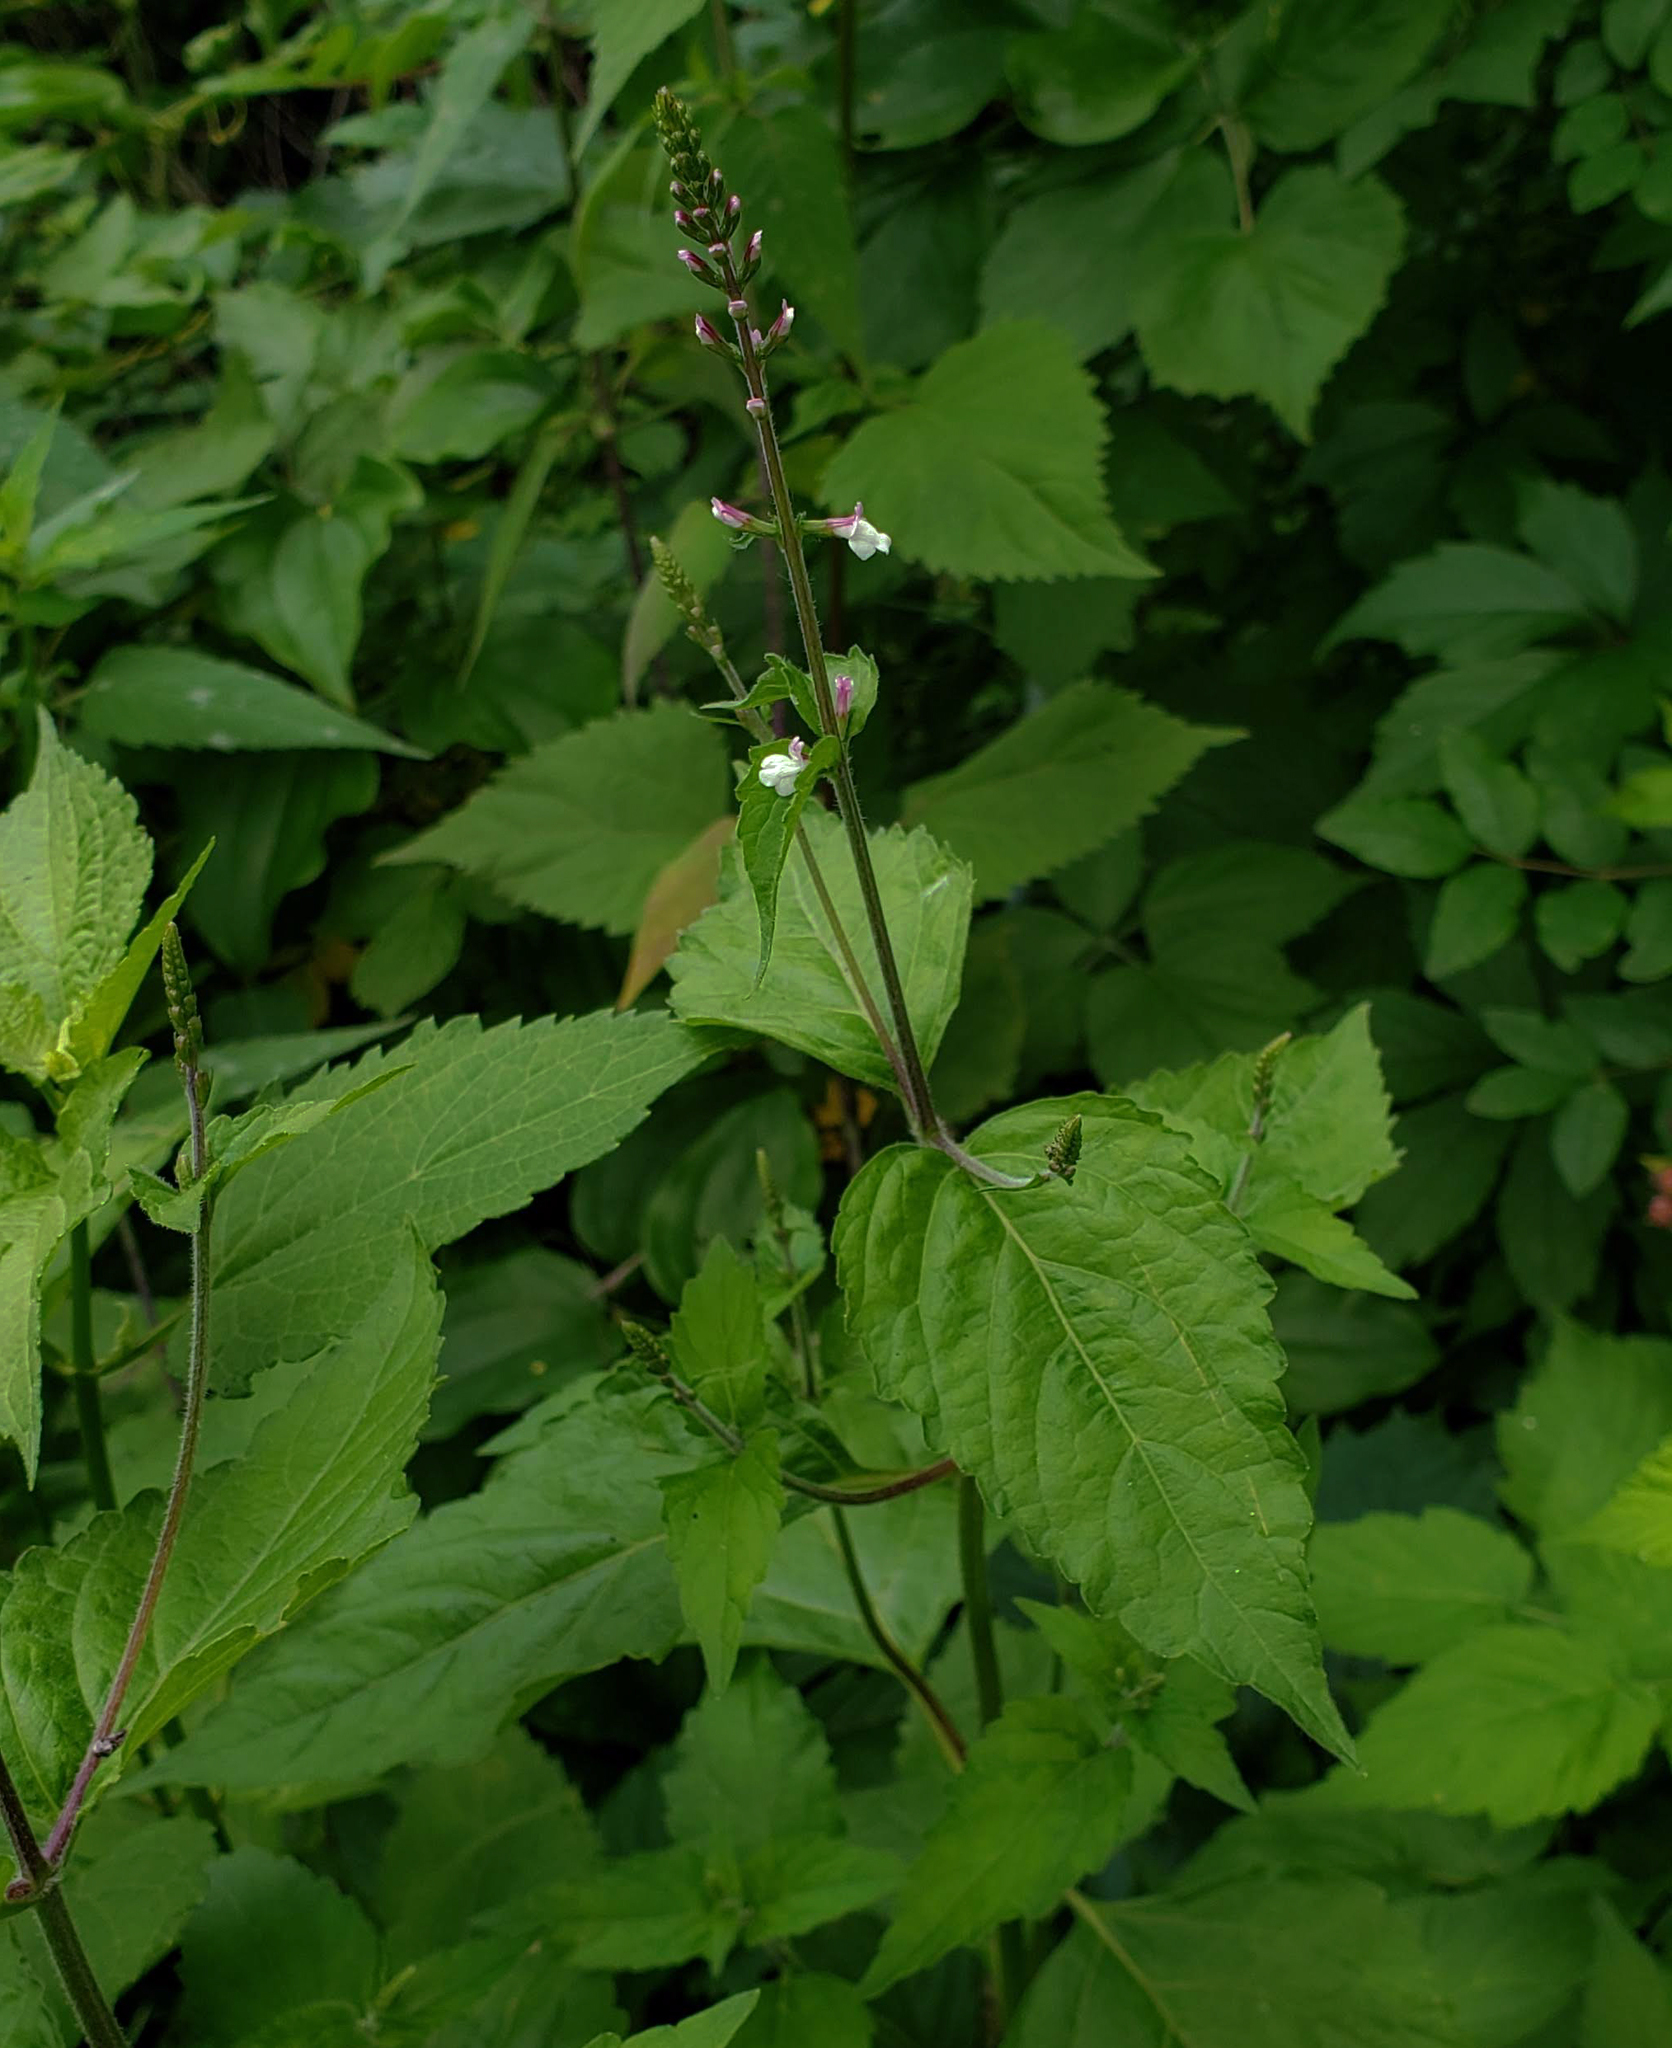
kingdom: Plantae
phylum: Tracheophyta
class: Magnoliopsida
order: Lamiales
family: Phrymaceae
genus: Phryma
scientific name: Phryma leptostachya
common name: American lopseed
